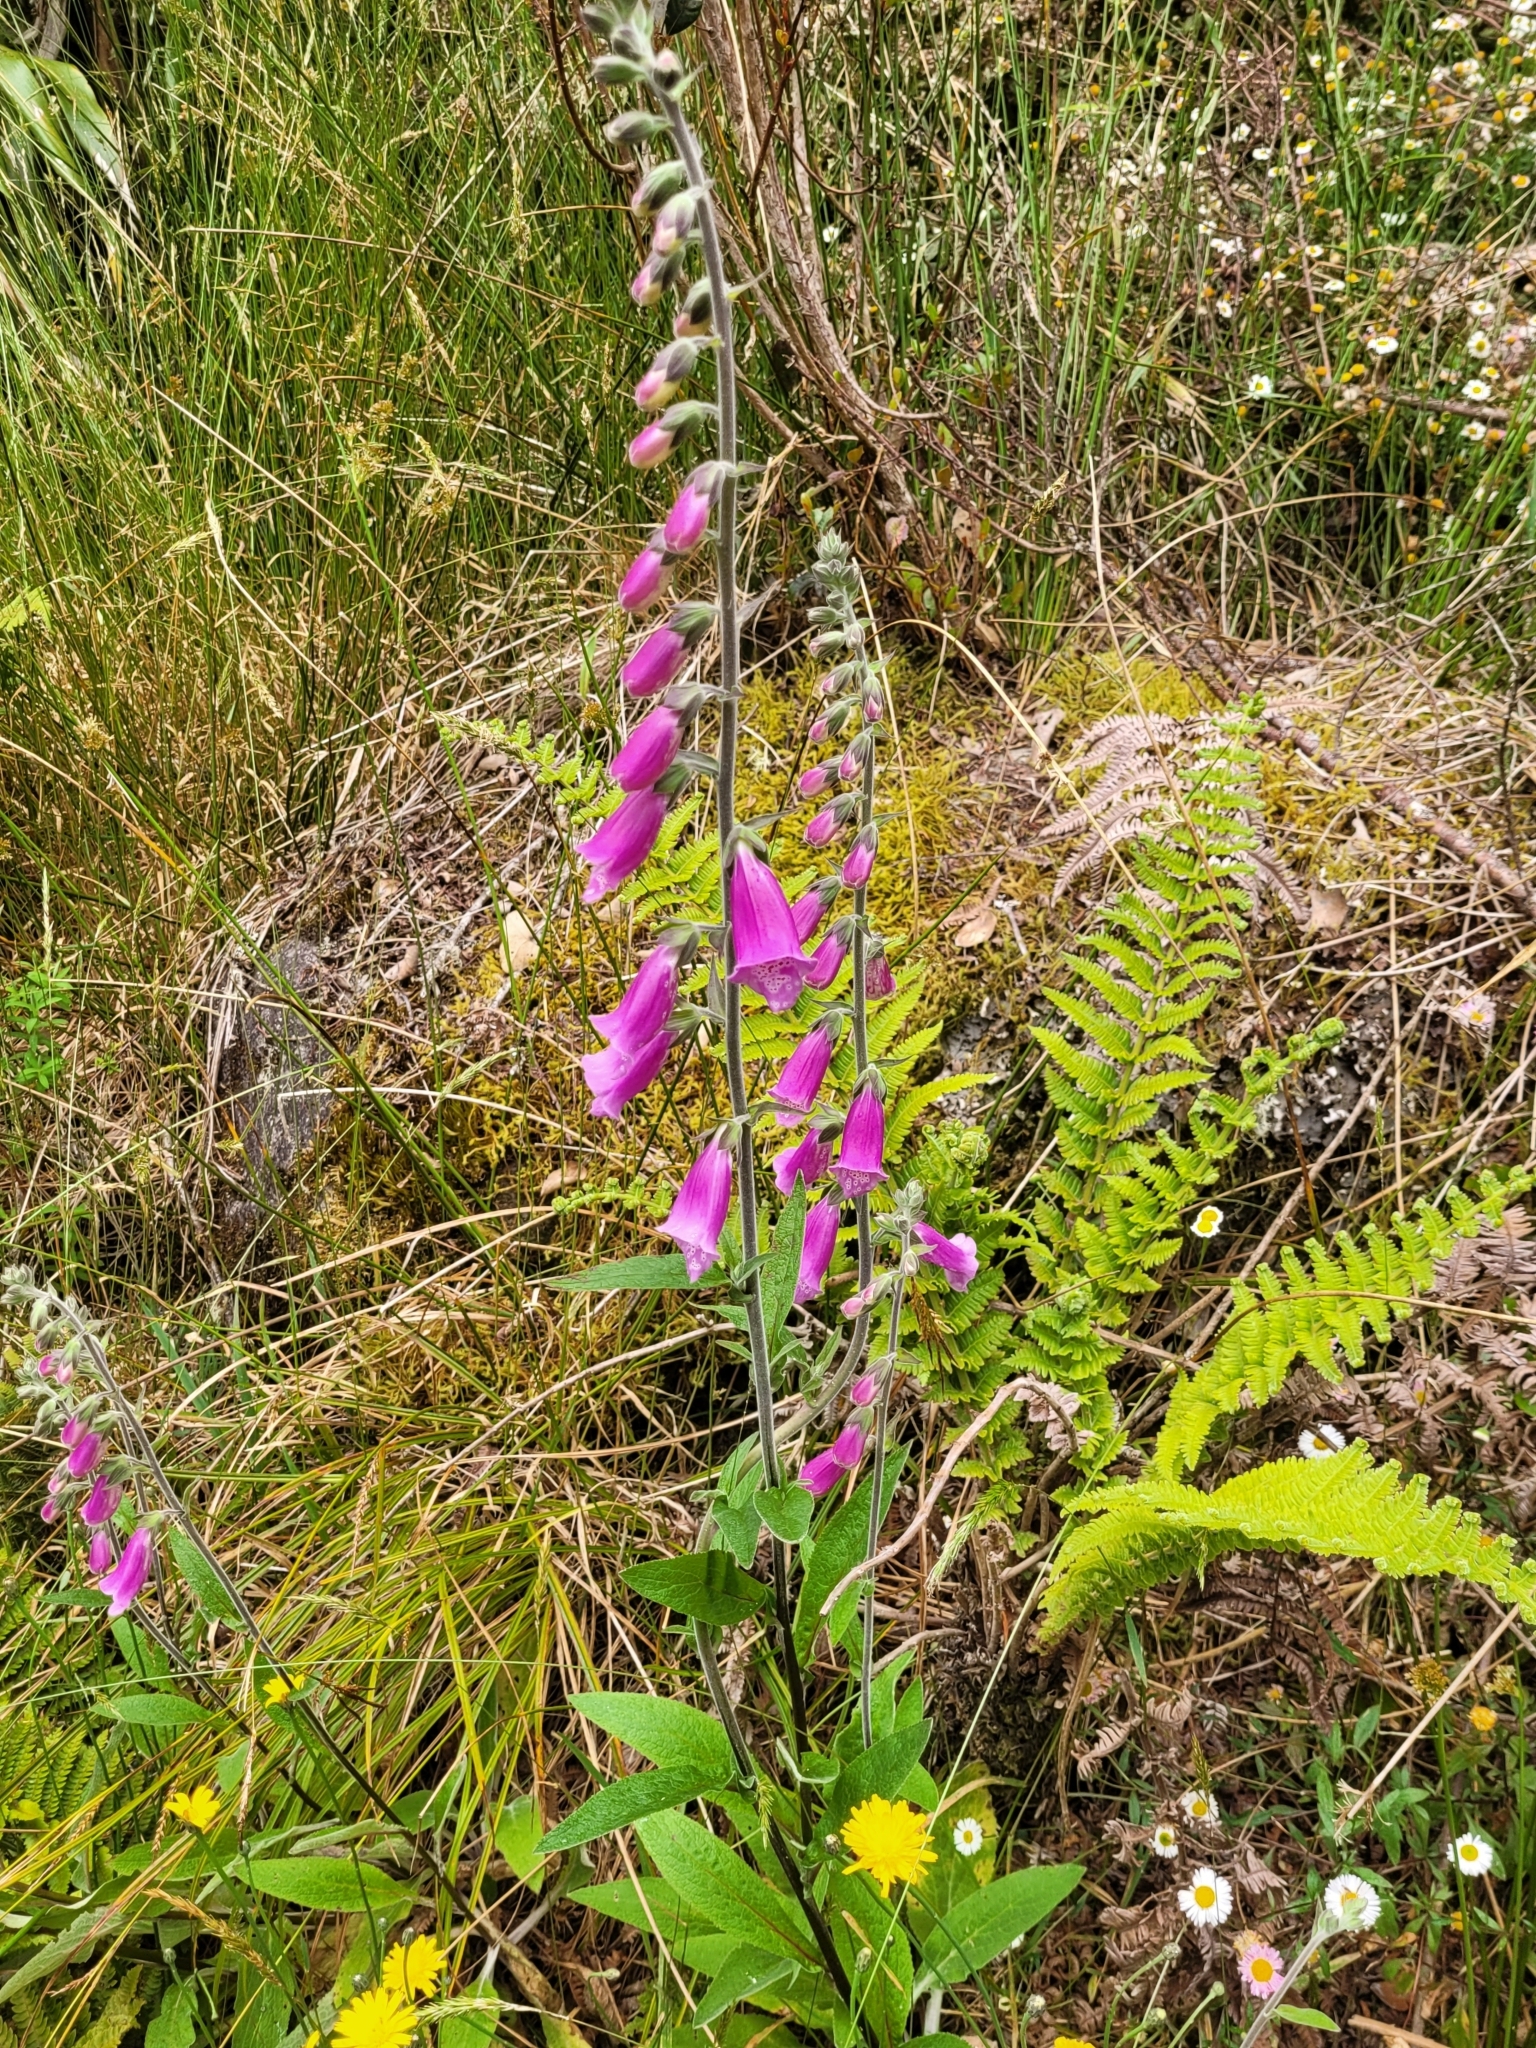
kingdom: Plantae
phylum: Tracheophyta
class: Magnoliopsida
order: Lamiales
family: Plantaginaceae
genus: Digitalis
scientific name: Digitalis purpurea
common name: Foxglove
